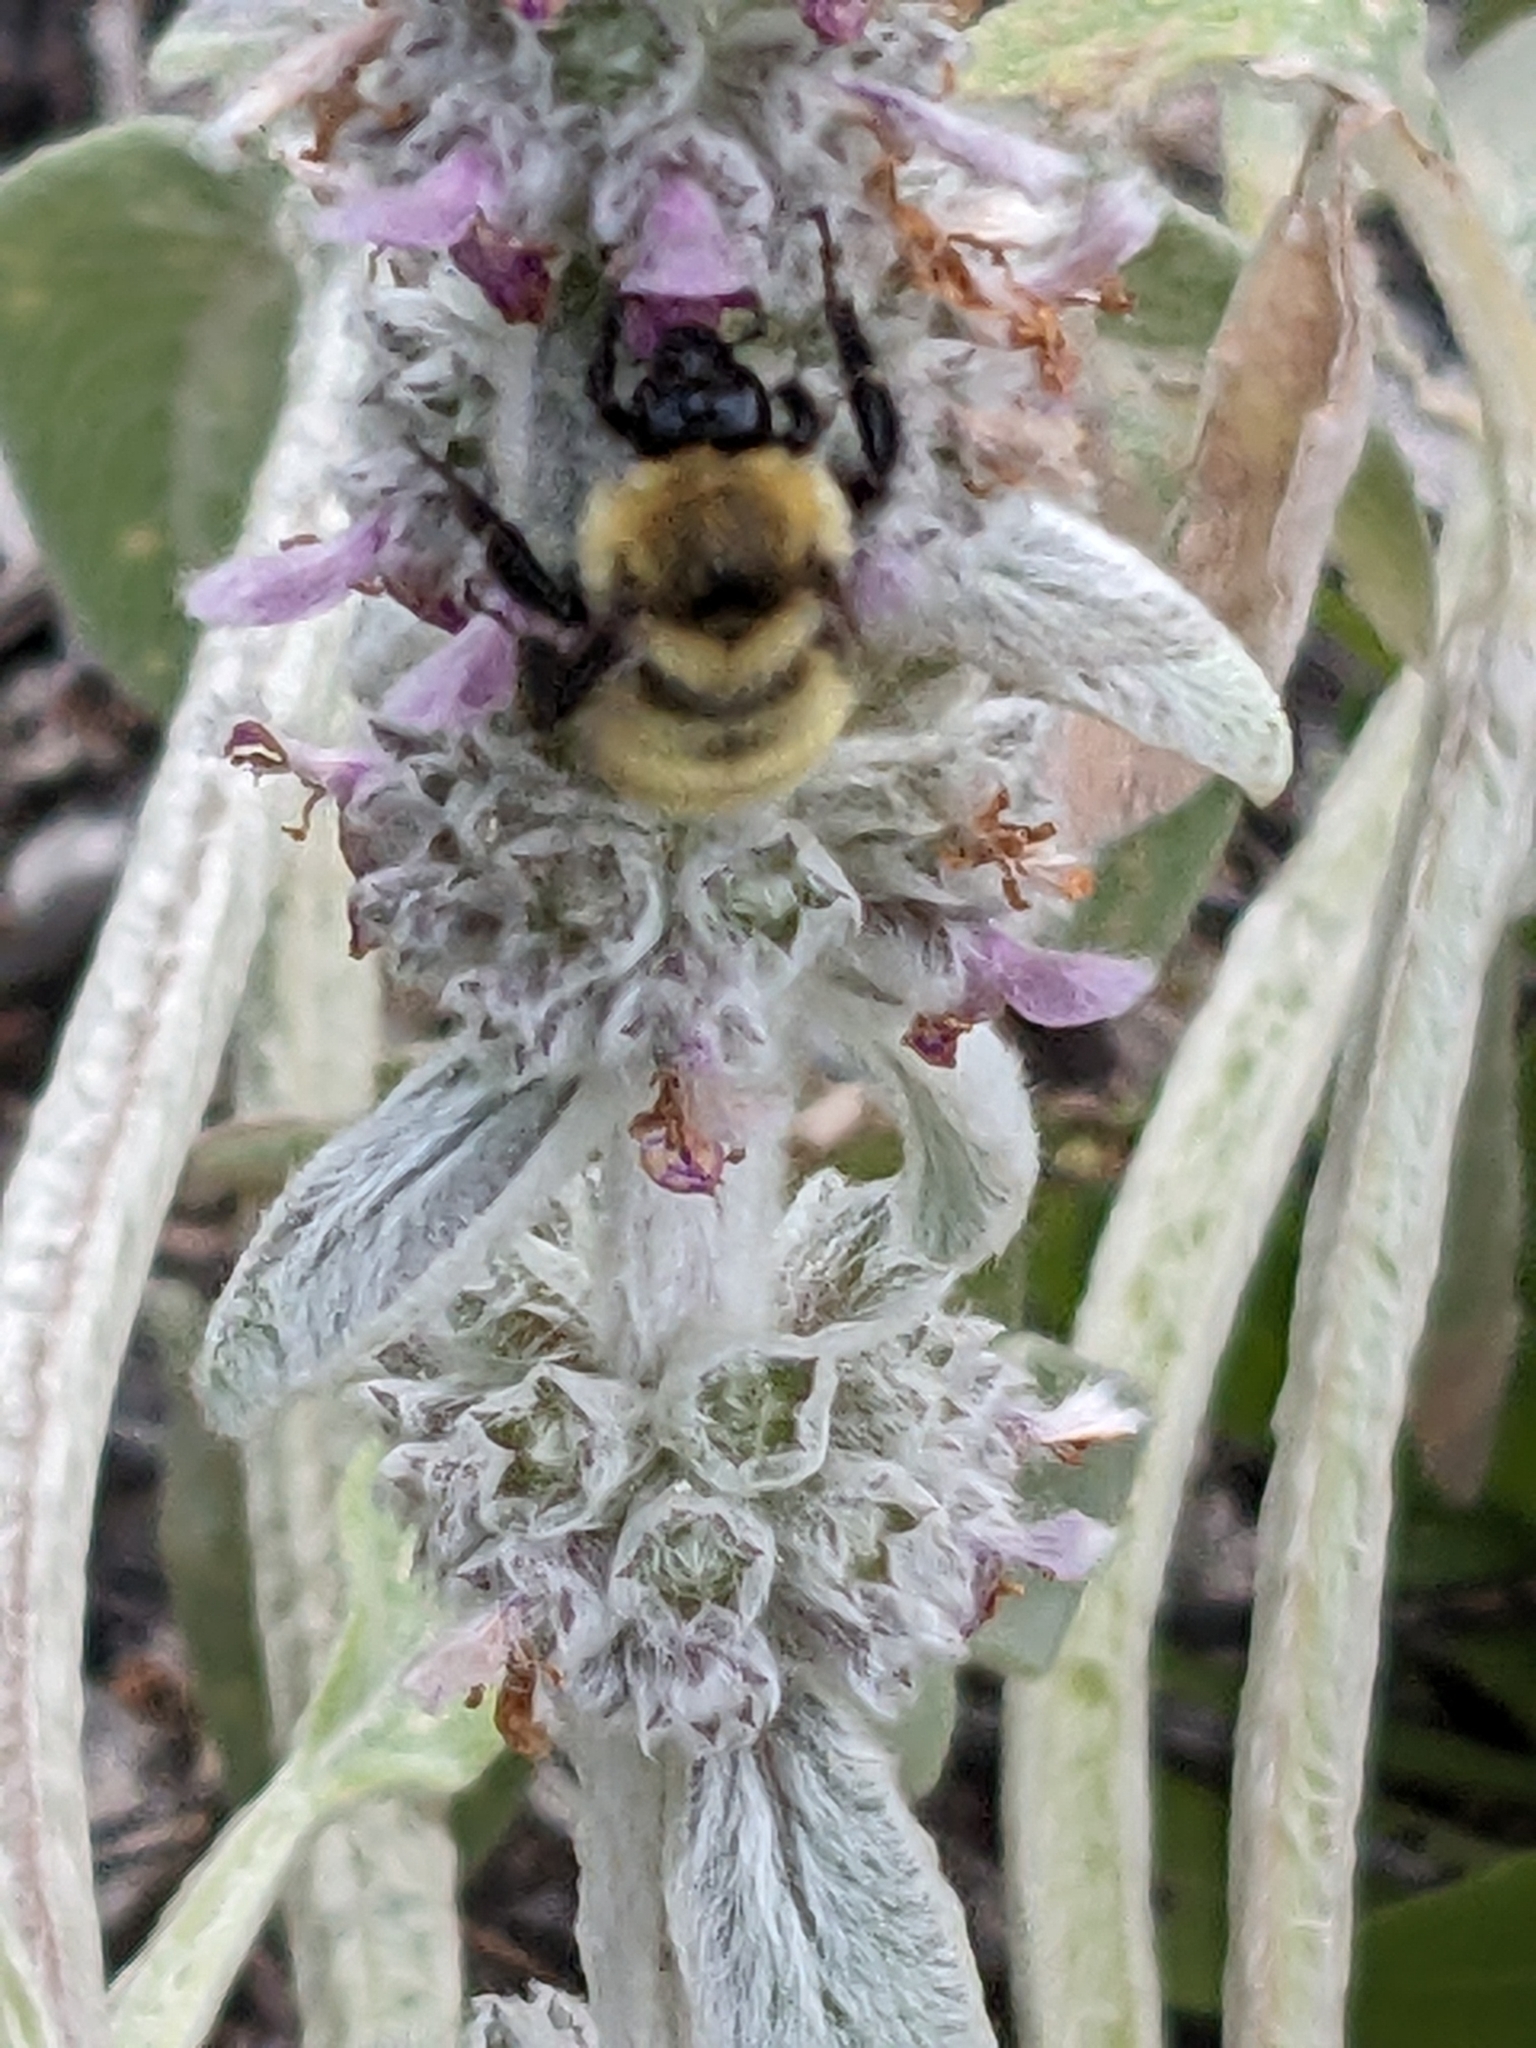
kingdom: Animalia
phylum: Arthropoda
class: Insecta
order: Hymenoptera
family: Apidae
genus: Bombus
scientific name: Bombus fervidus
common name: Yellow bumble bee
